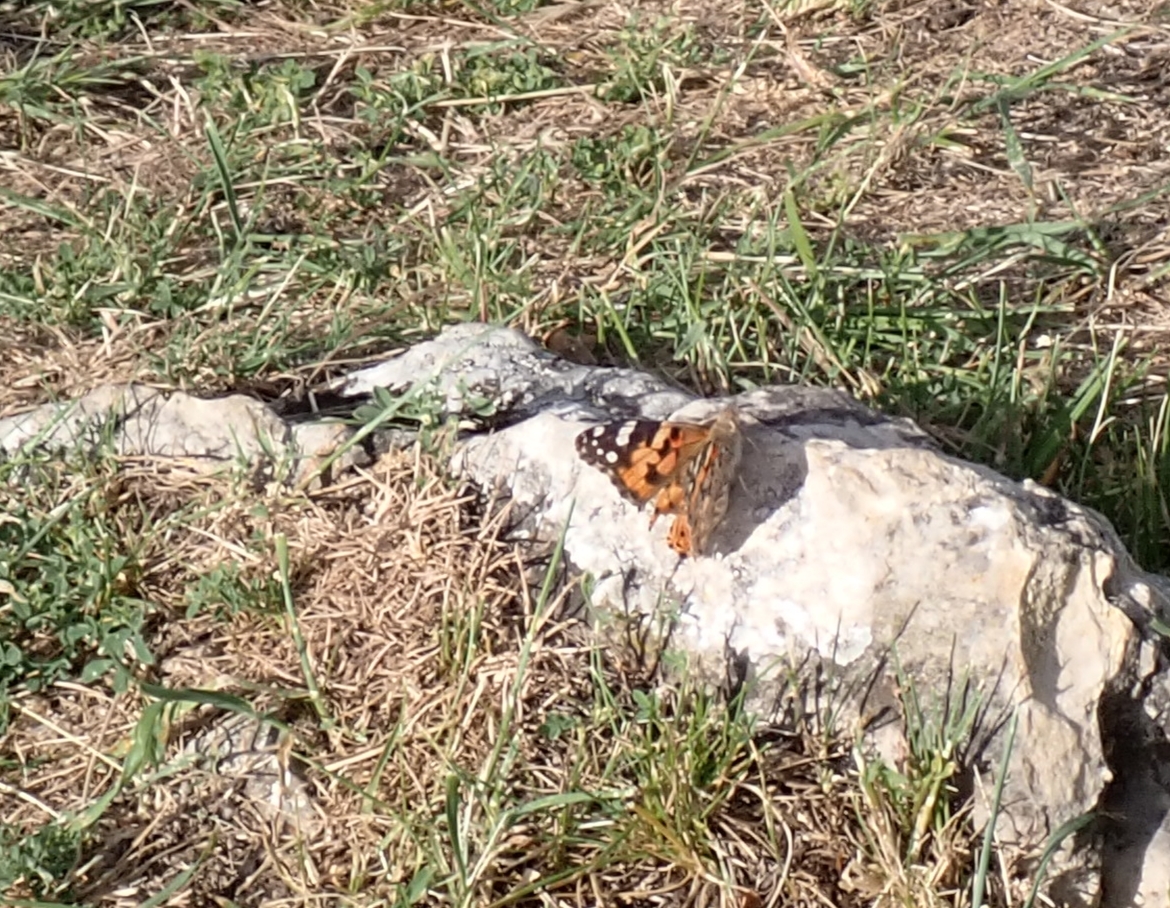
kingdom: Animalia
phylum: Arthropoda
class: Insecta
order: Lepidoptera
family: Nymphalidae
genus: Vanessa
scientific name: Vanessa cardui
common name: Painted lady
